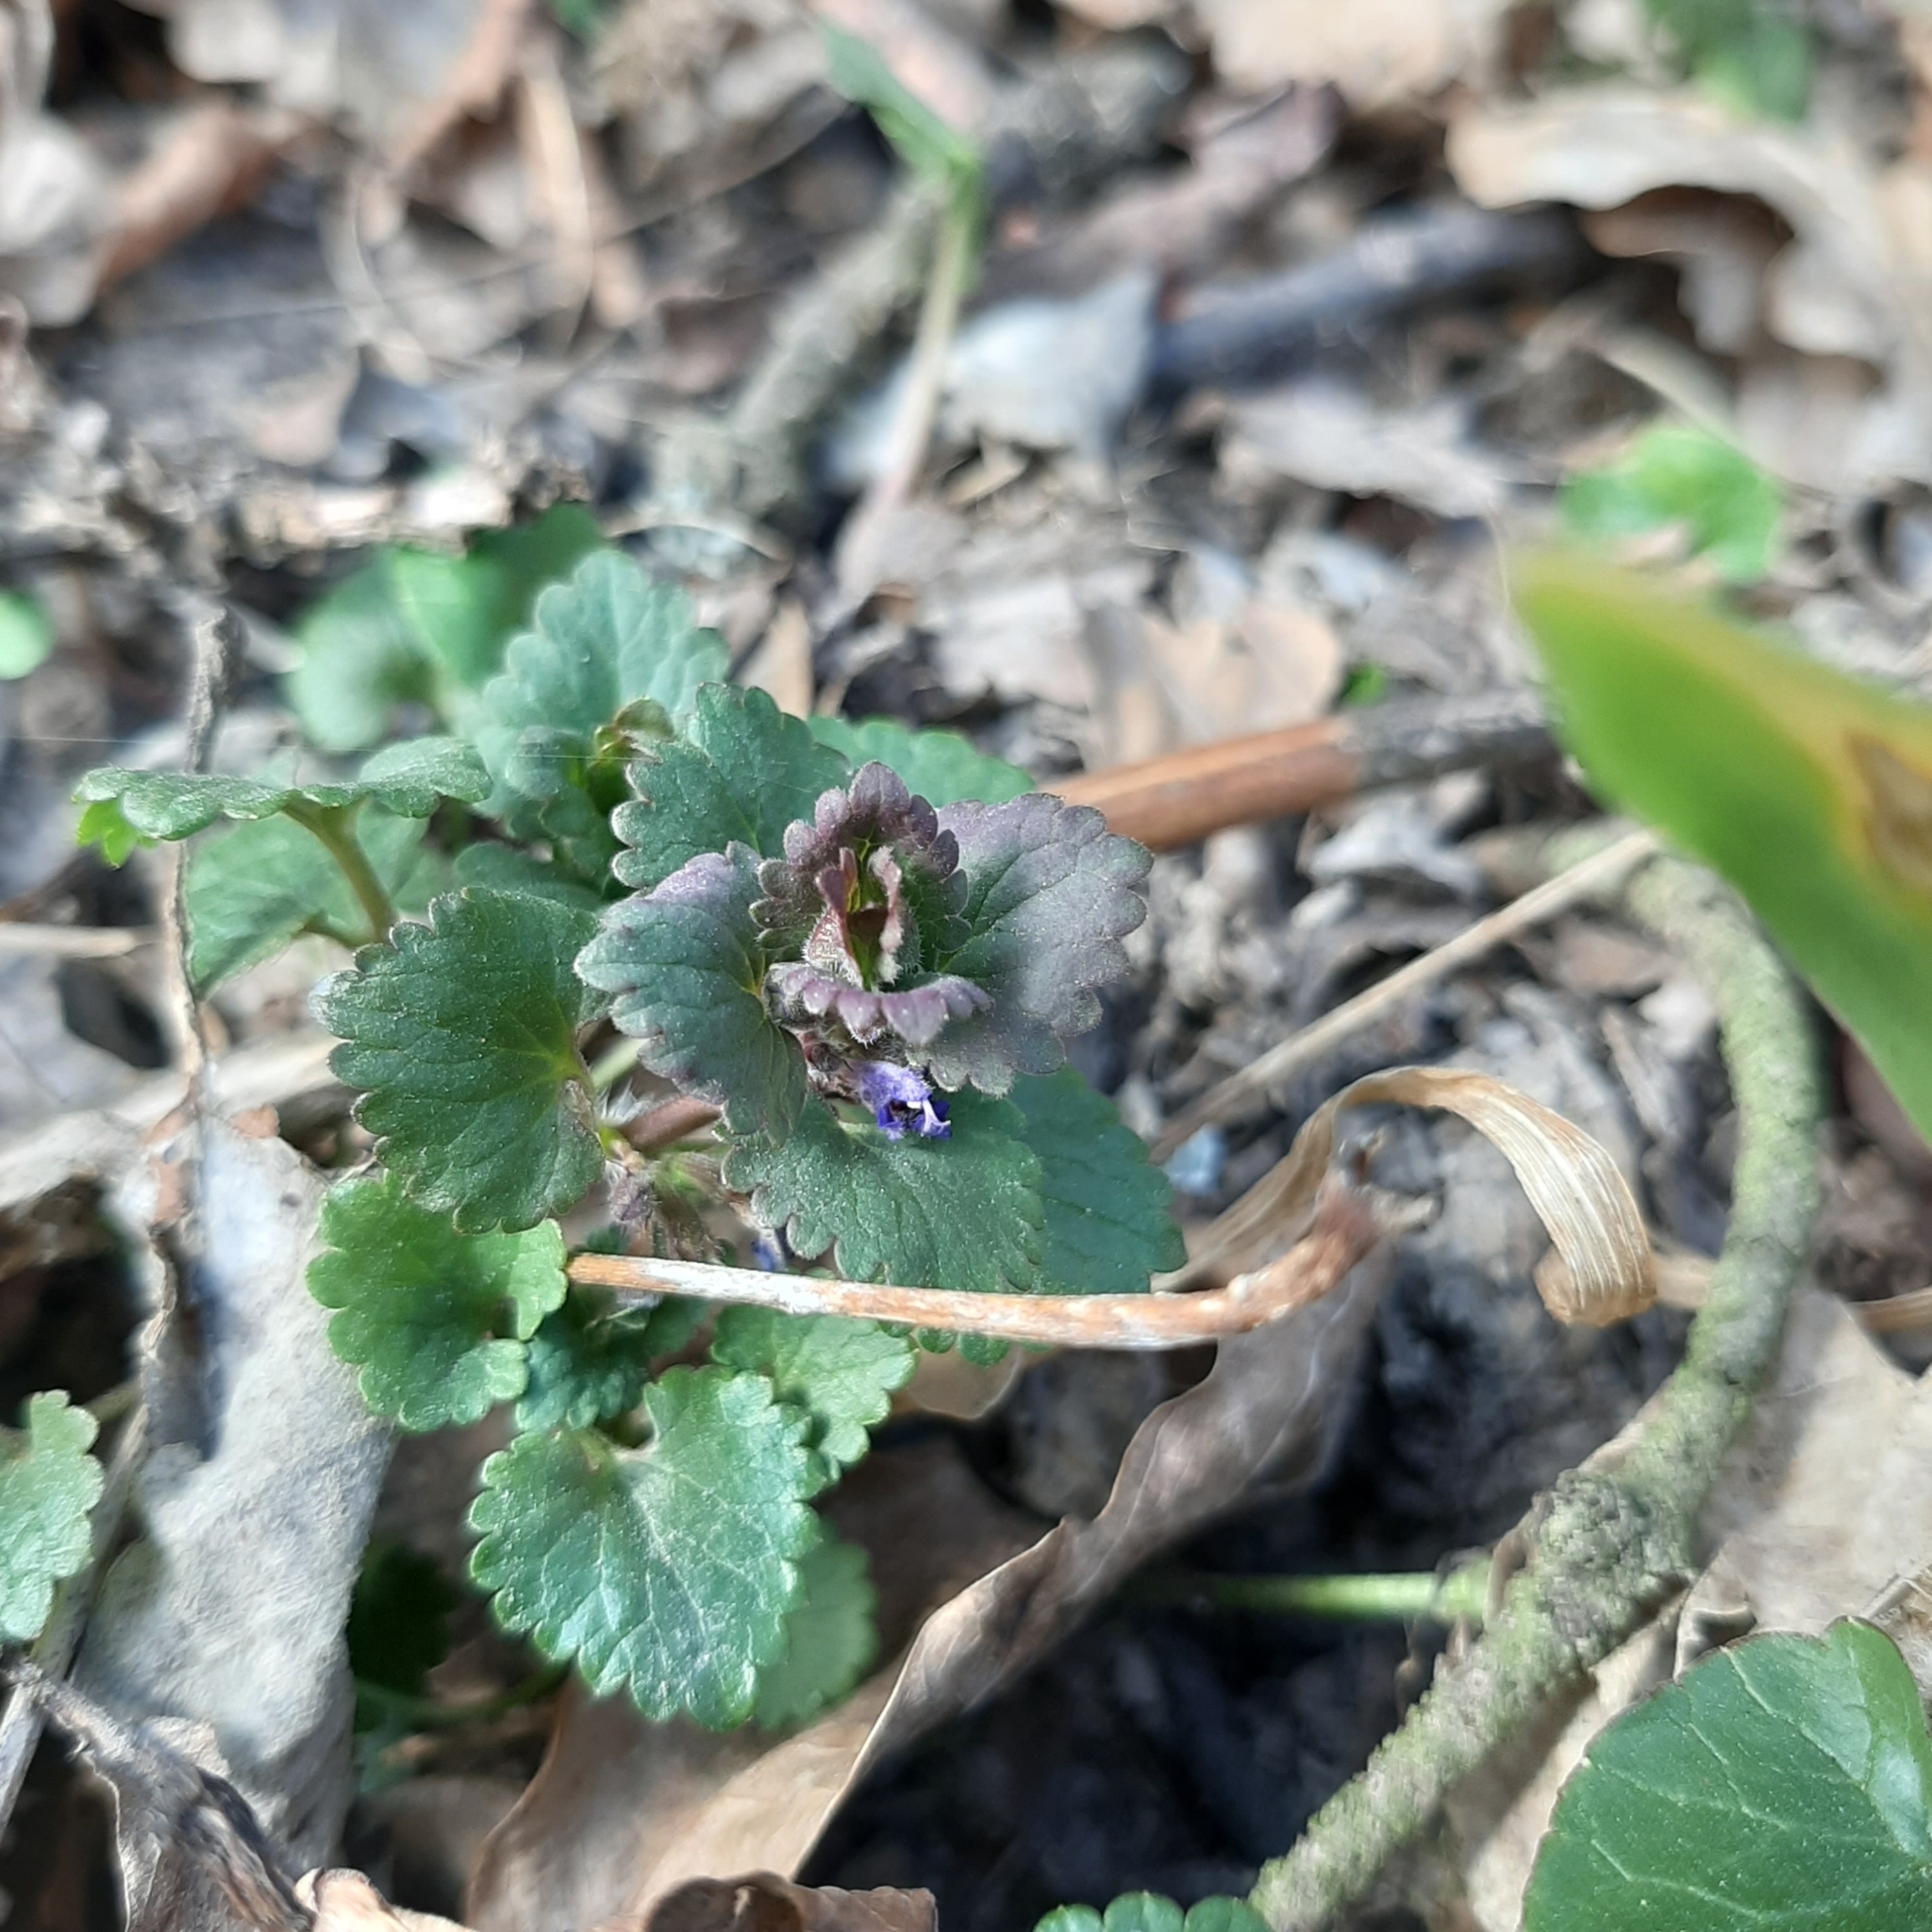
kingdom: Plantae
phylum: Tracheophyta
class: Magnoliopsida
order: Lamiales
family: Lamiaceae
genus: Glechoma
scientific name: Glechoma hederacea
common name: Ground ivy
